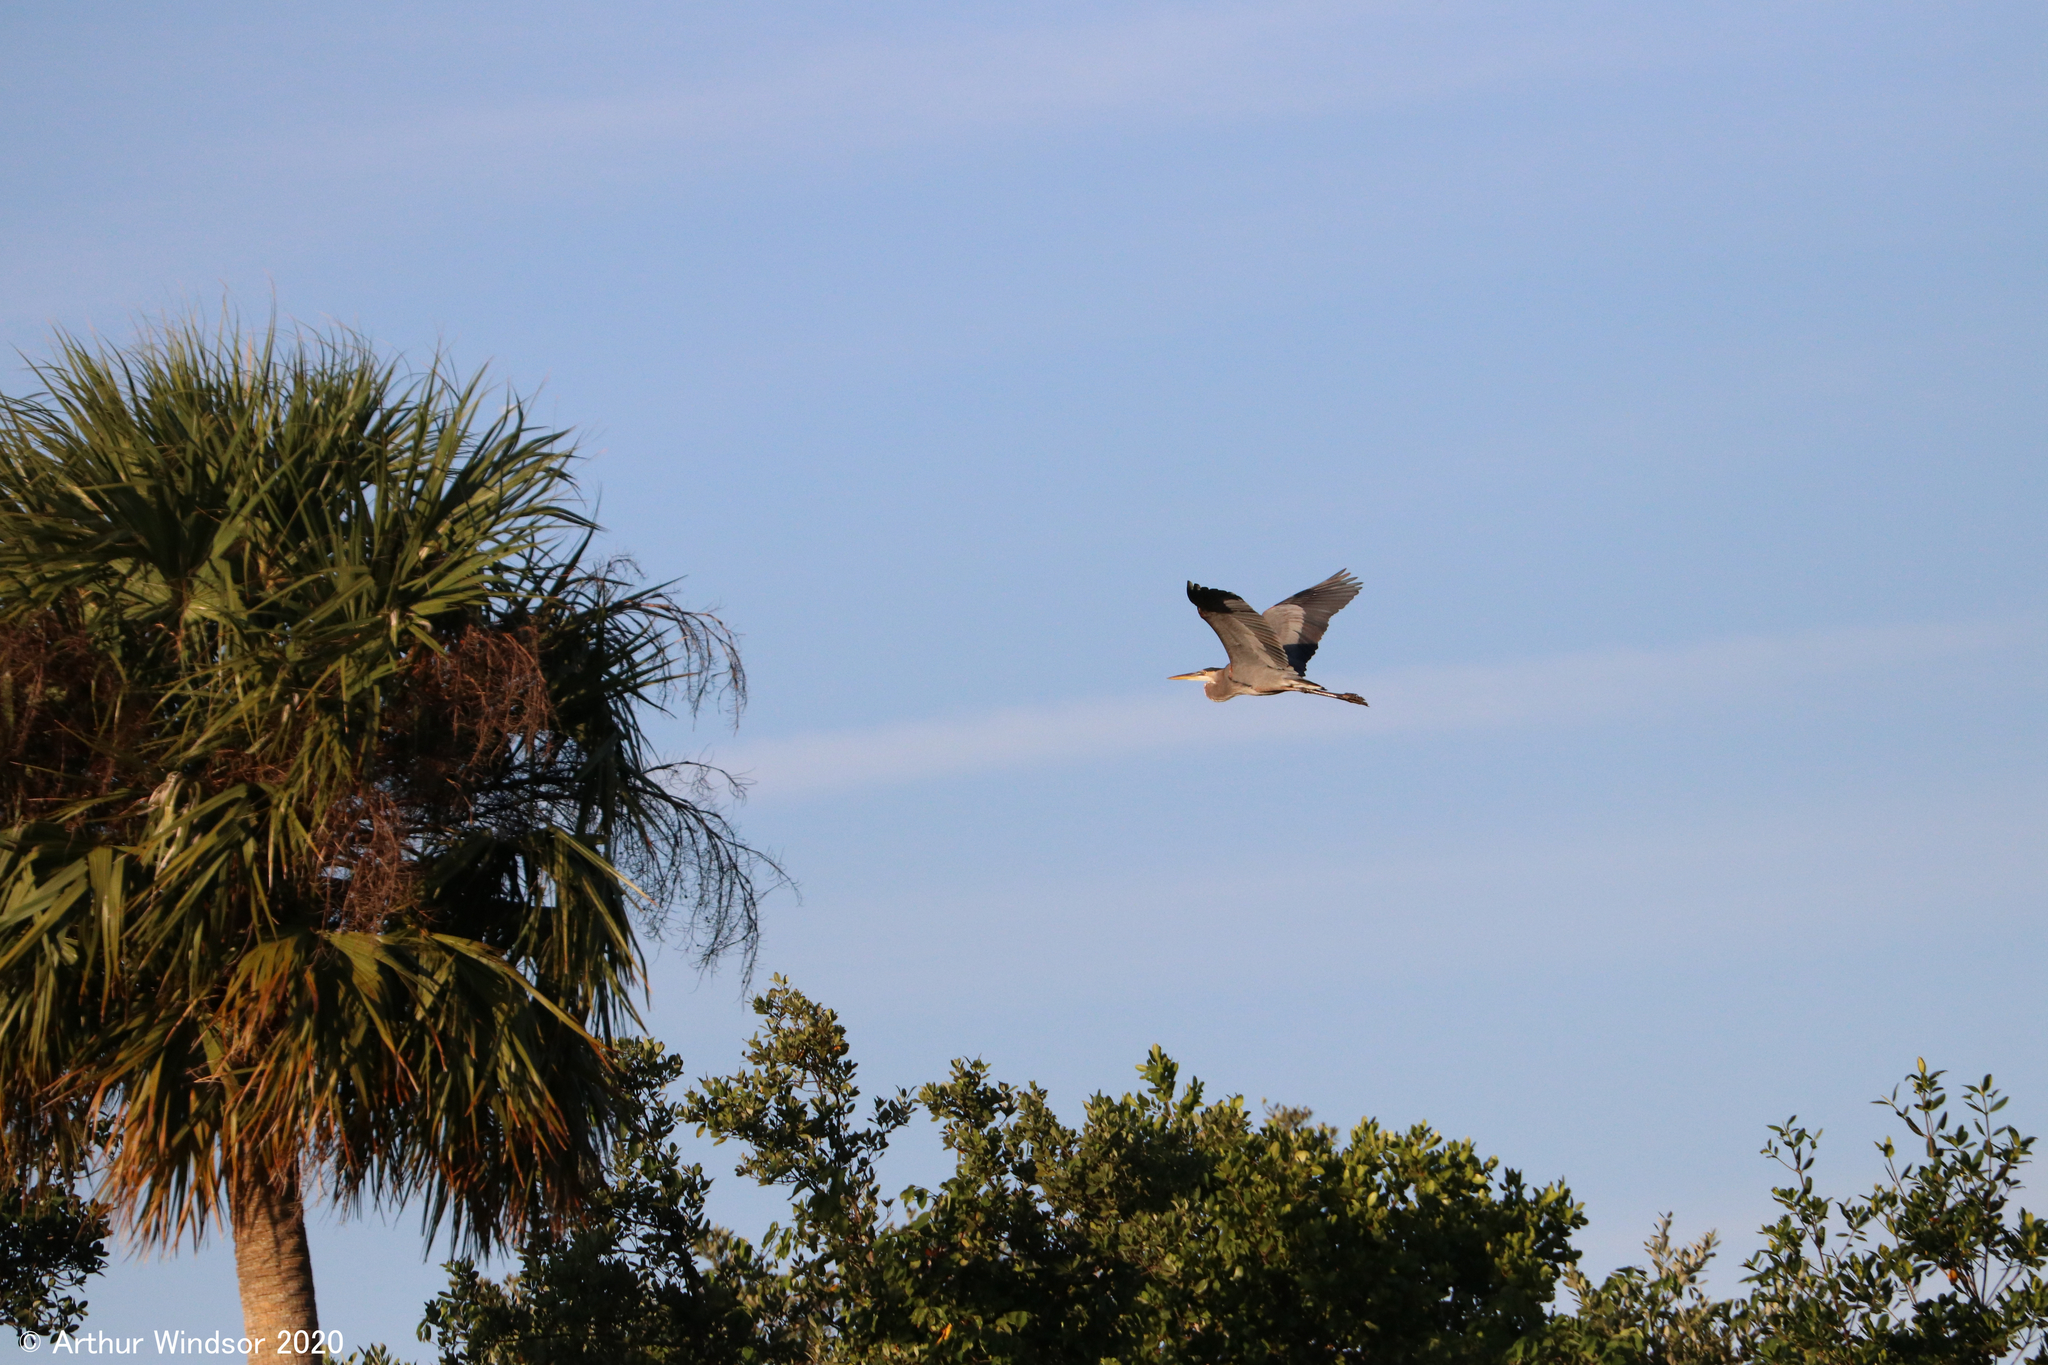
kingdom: Animalia
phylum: Chordata
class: Aves
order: Pelecaniformes
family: Ardeidae
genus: Ardea
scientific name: Ardea herodias
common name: Great blue heron
